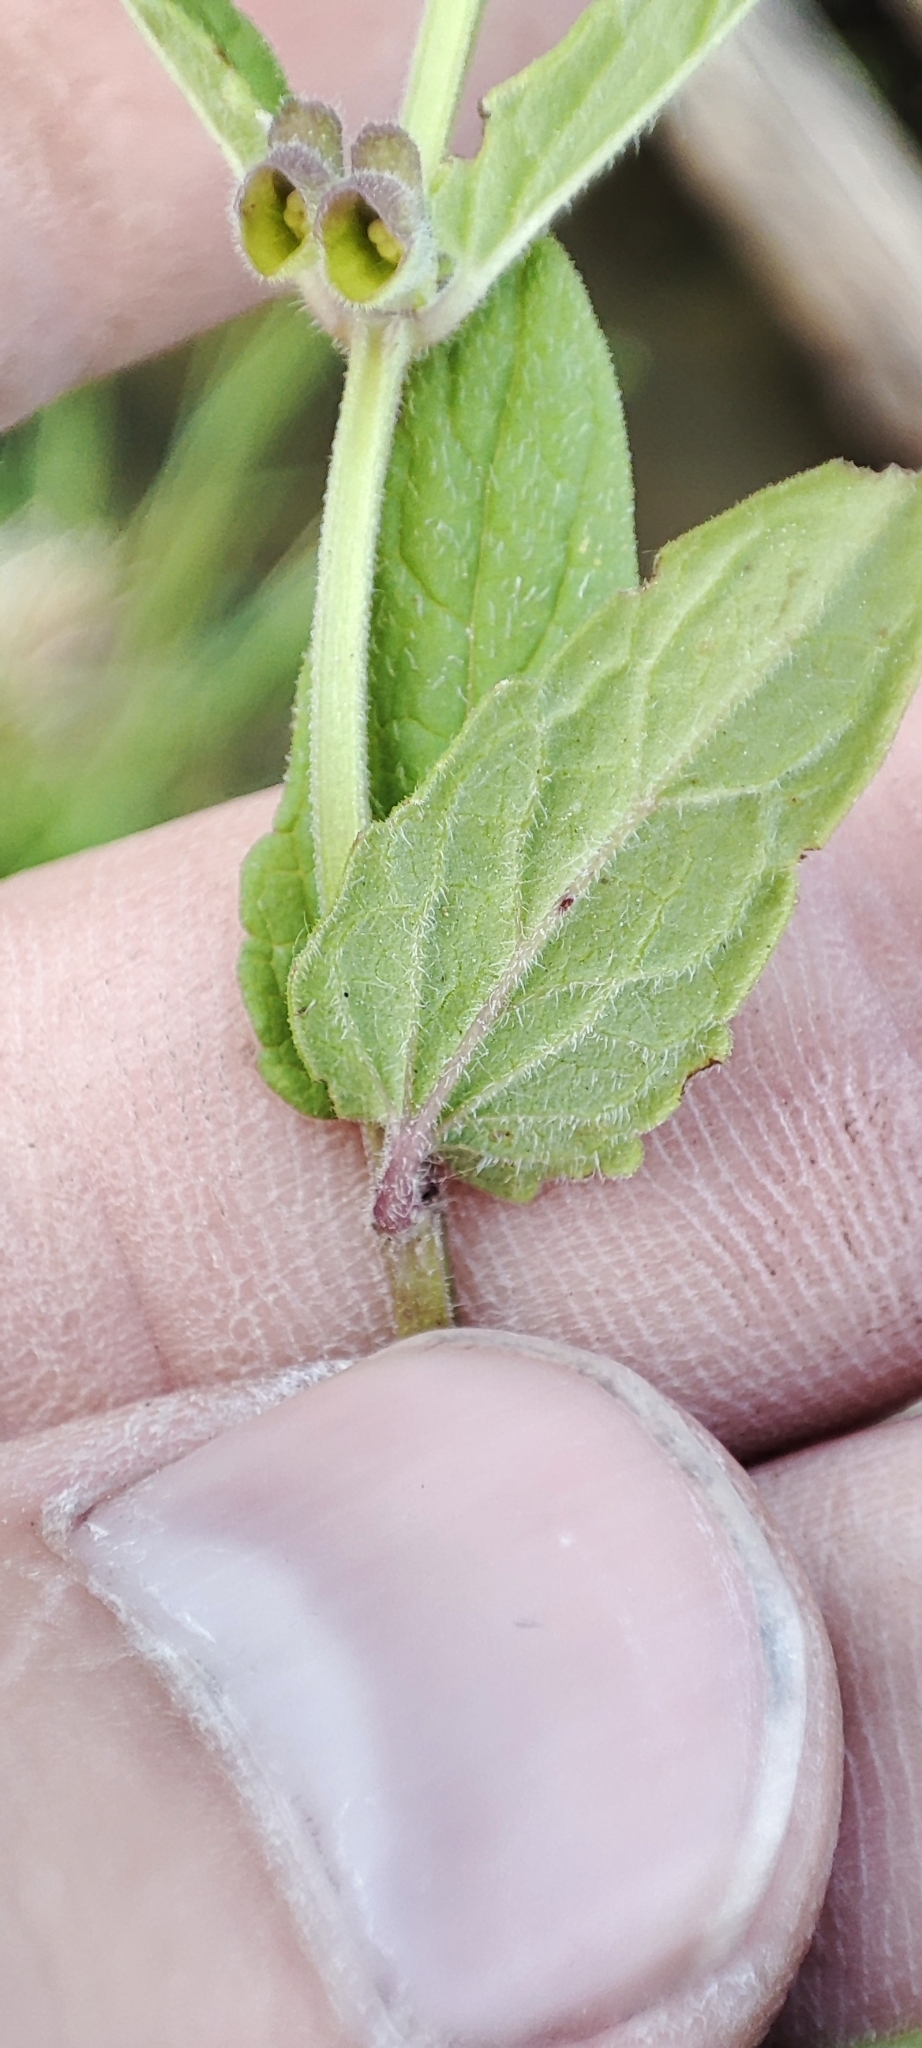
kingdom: Plantae
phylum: Tracheophyta
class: Magnoliopsida
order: Lamiales
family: Lamiaceae
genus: Scutellaria
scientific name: Scutellaria galericulata
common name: Skullcap
